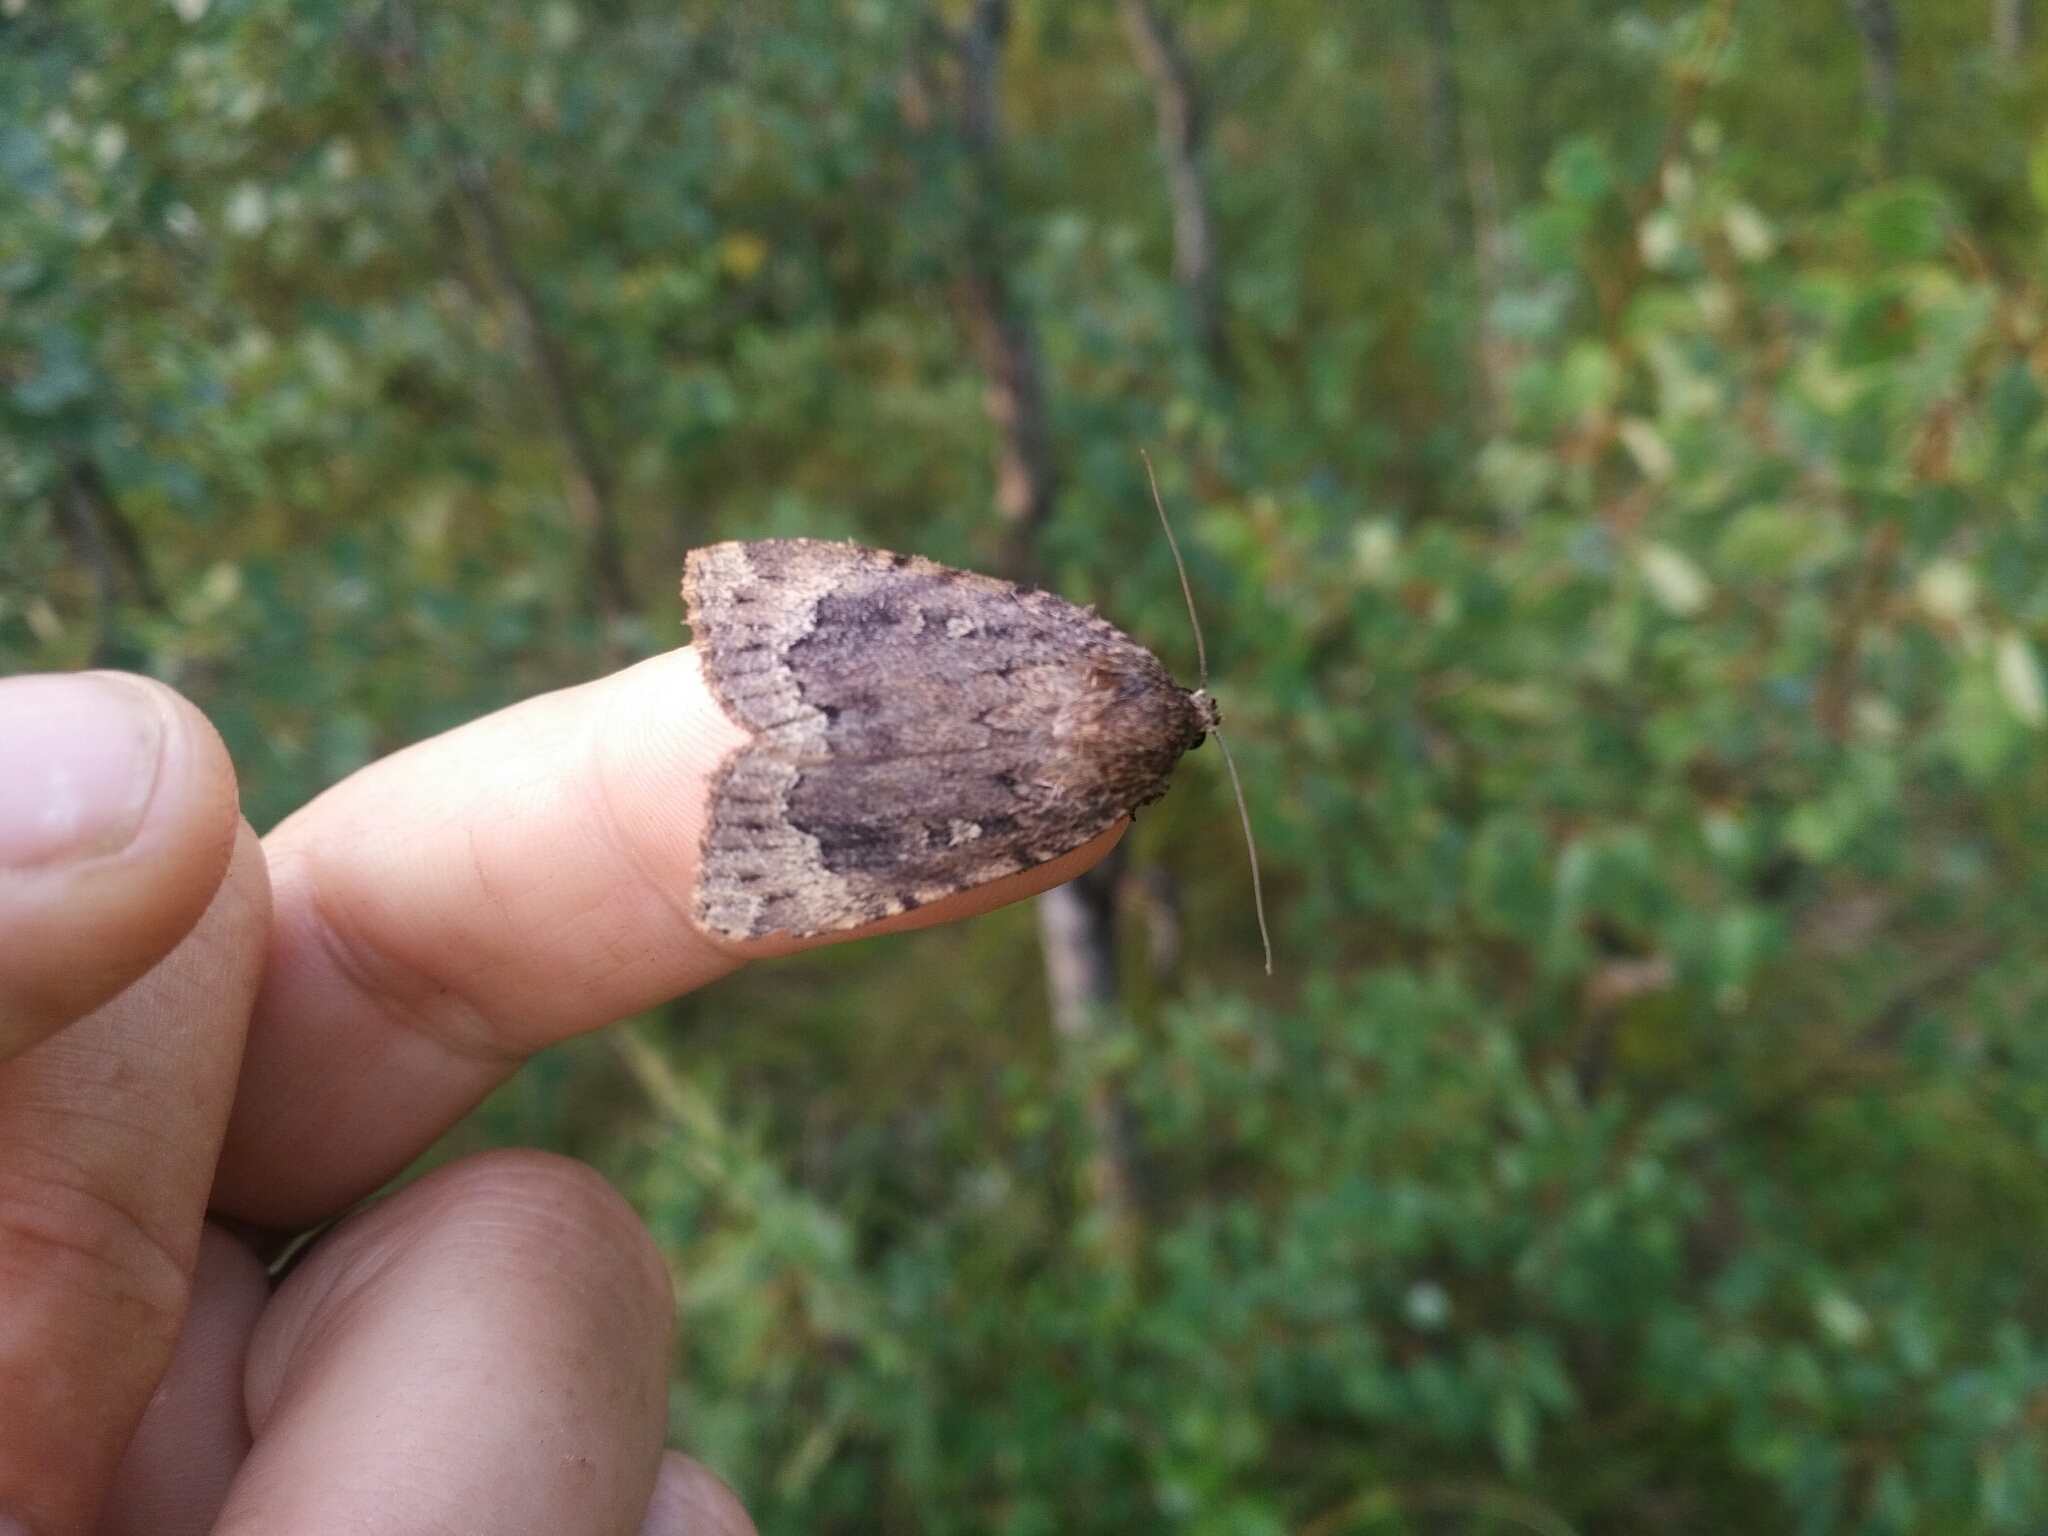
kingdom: Animalia
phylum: Arthropoda
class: Insecta
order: Lepidoptera
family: Noctuidae
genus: Amphipyra
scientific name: Amphipyra pyramidoides
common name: American copper underwing
